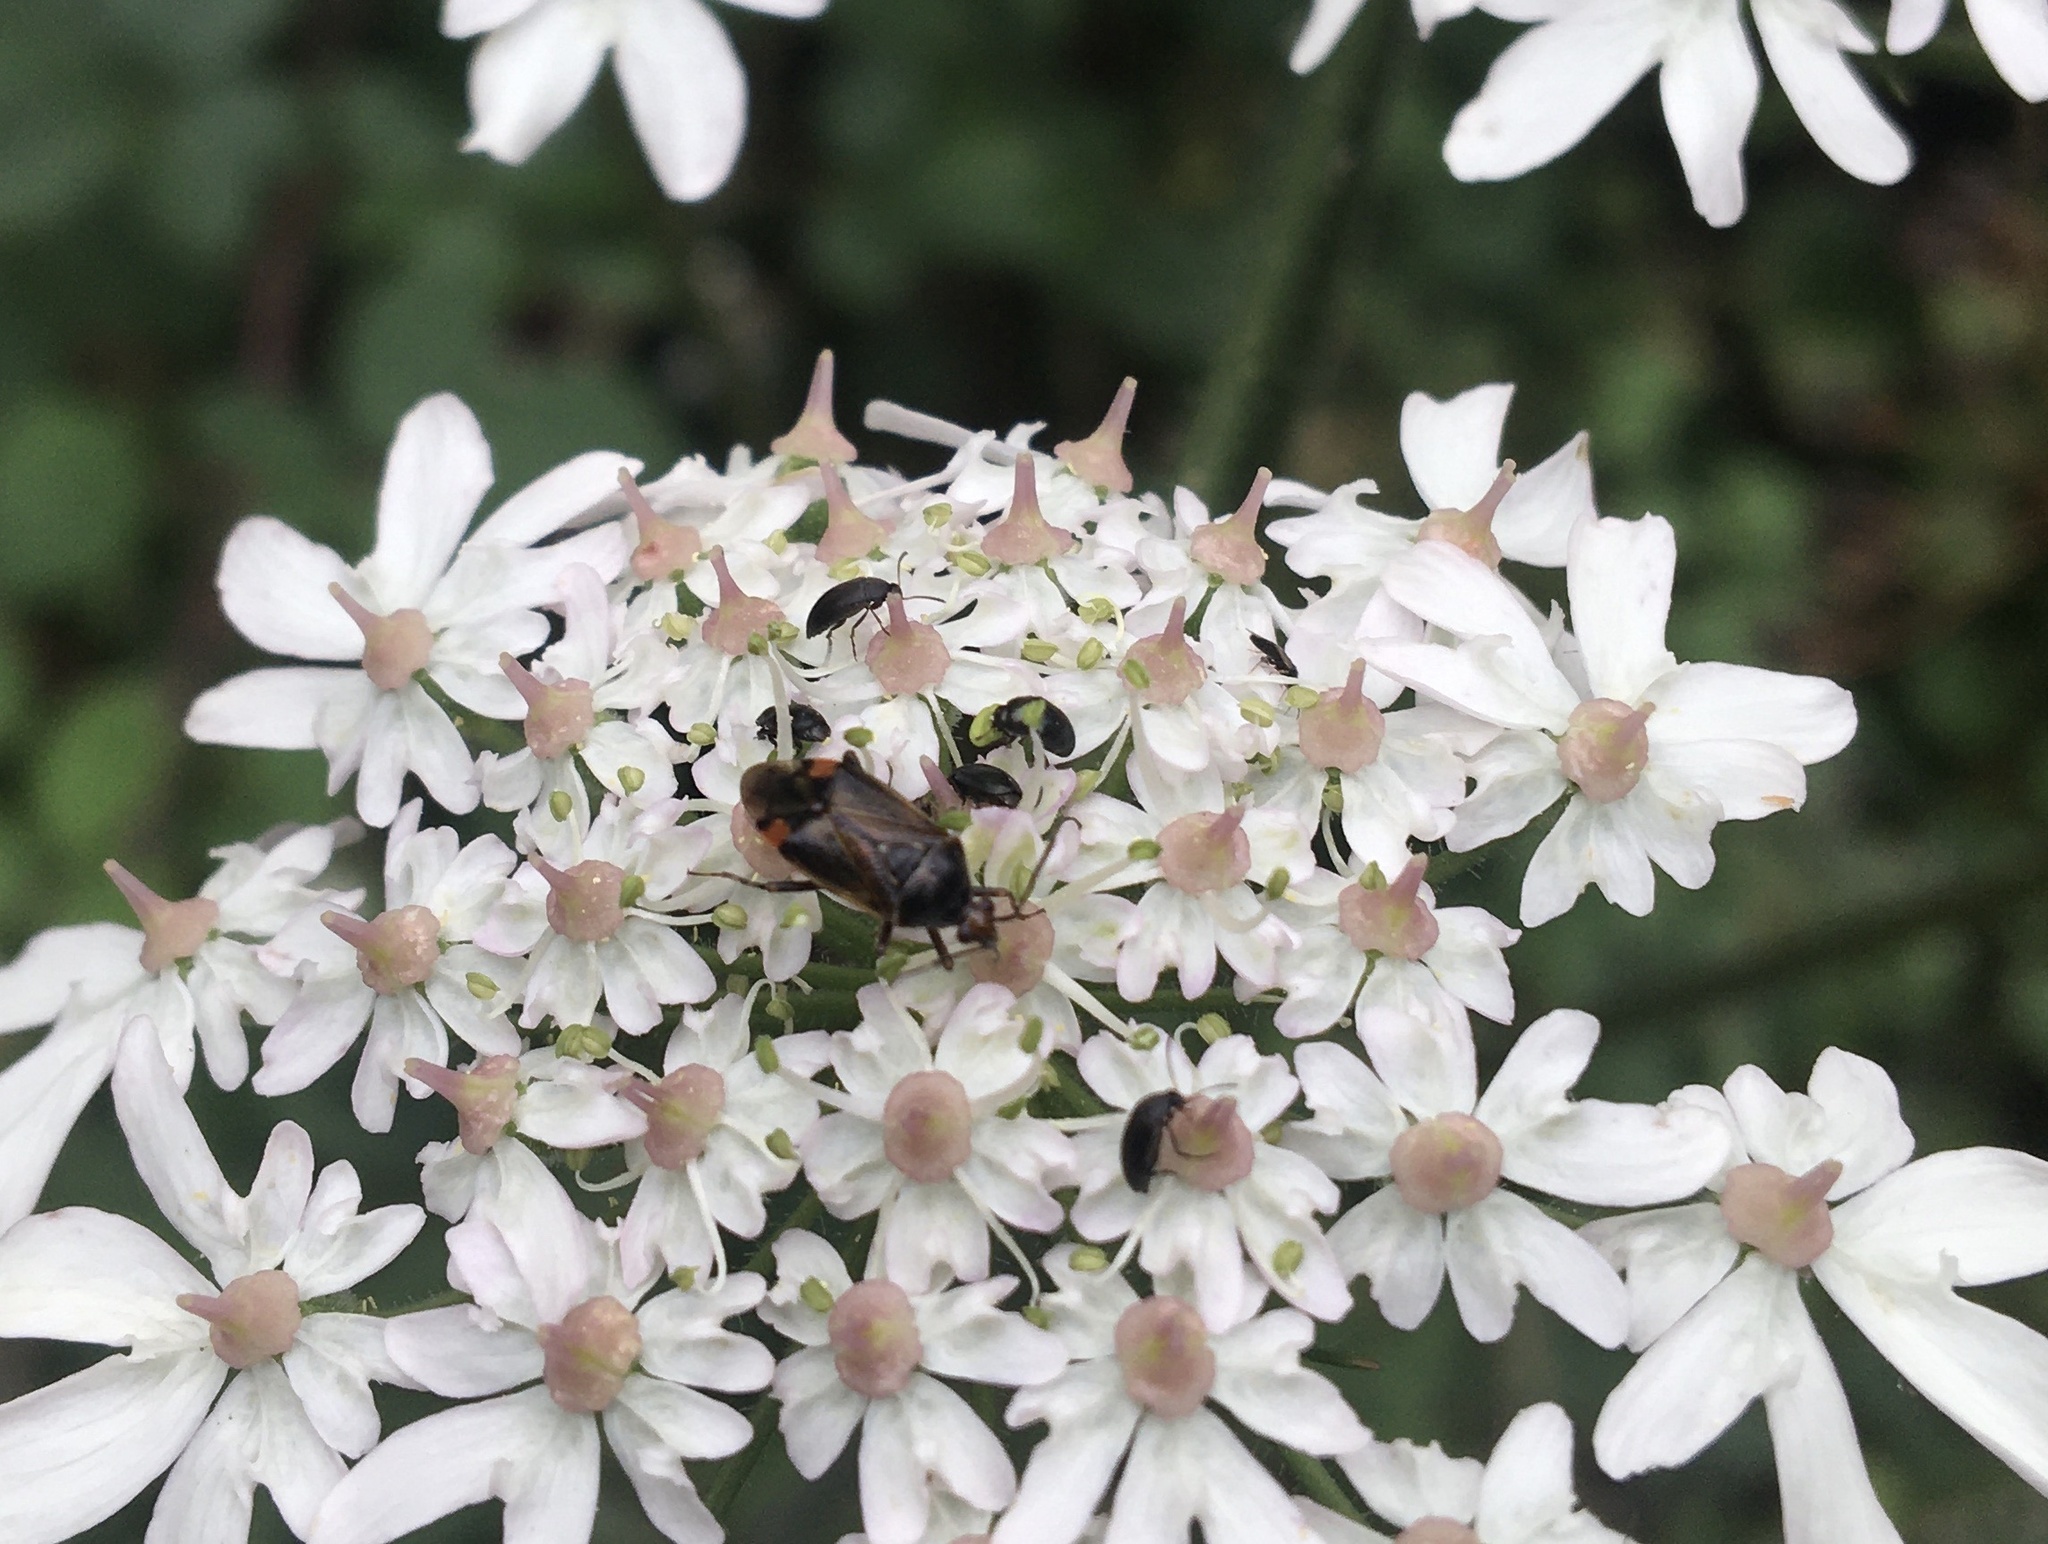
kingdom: Animalia
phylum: Arthropoda
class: Insecta
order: Hemiptera
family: Miridae
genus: Deraeocoris
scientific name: Deraeocoris flavilinea
